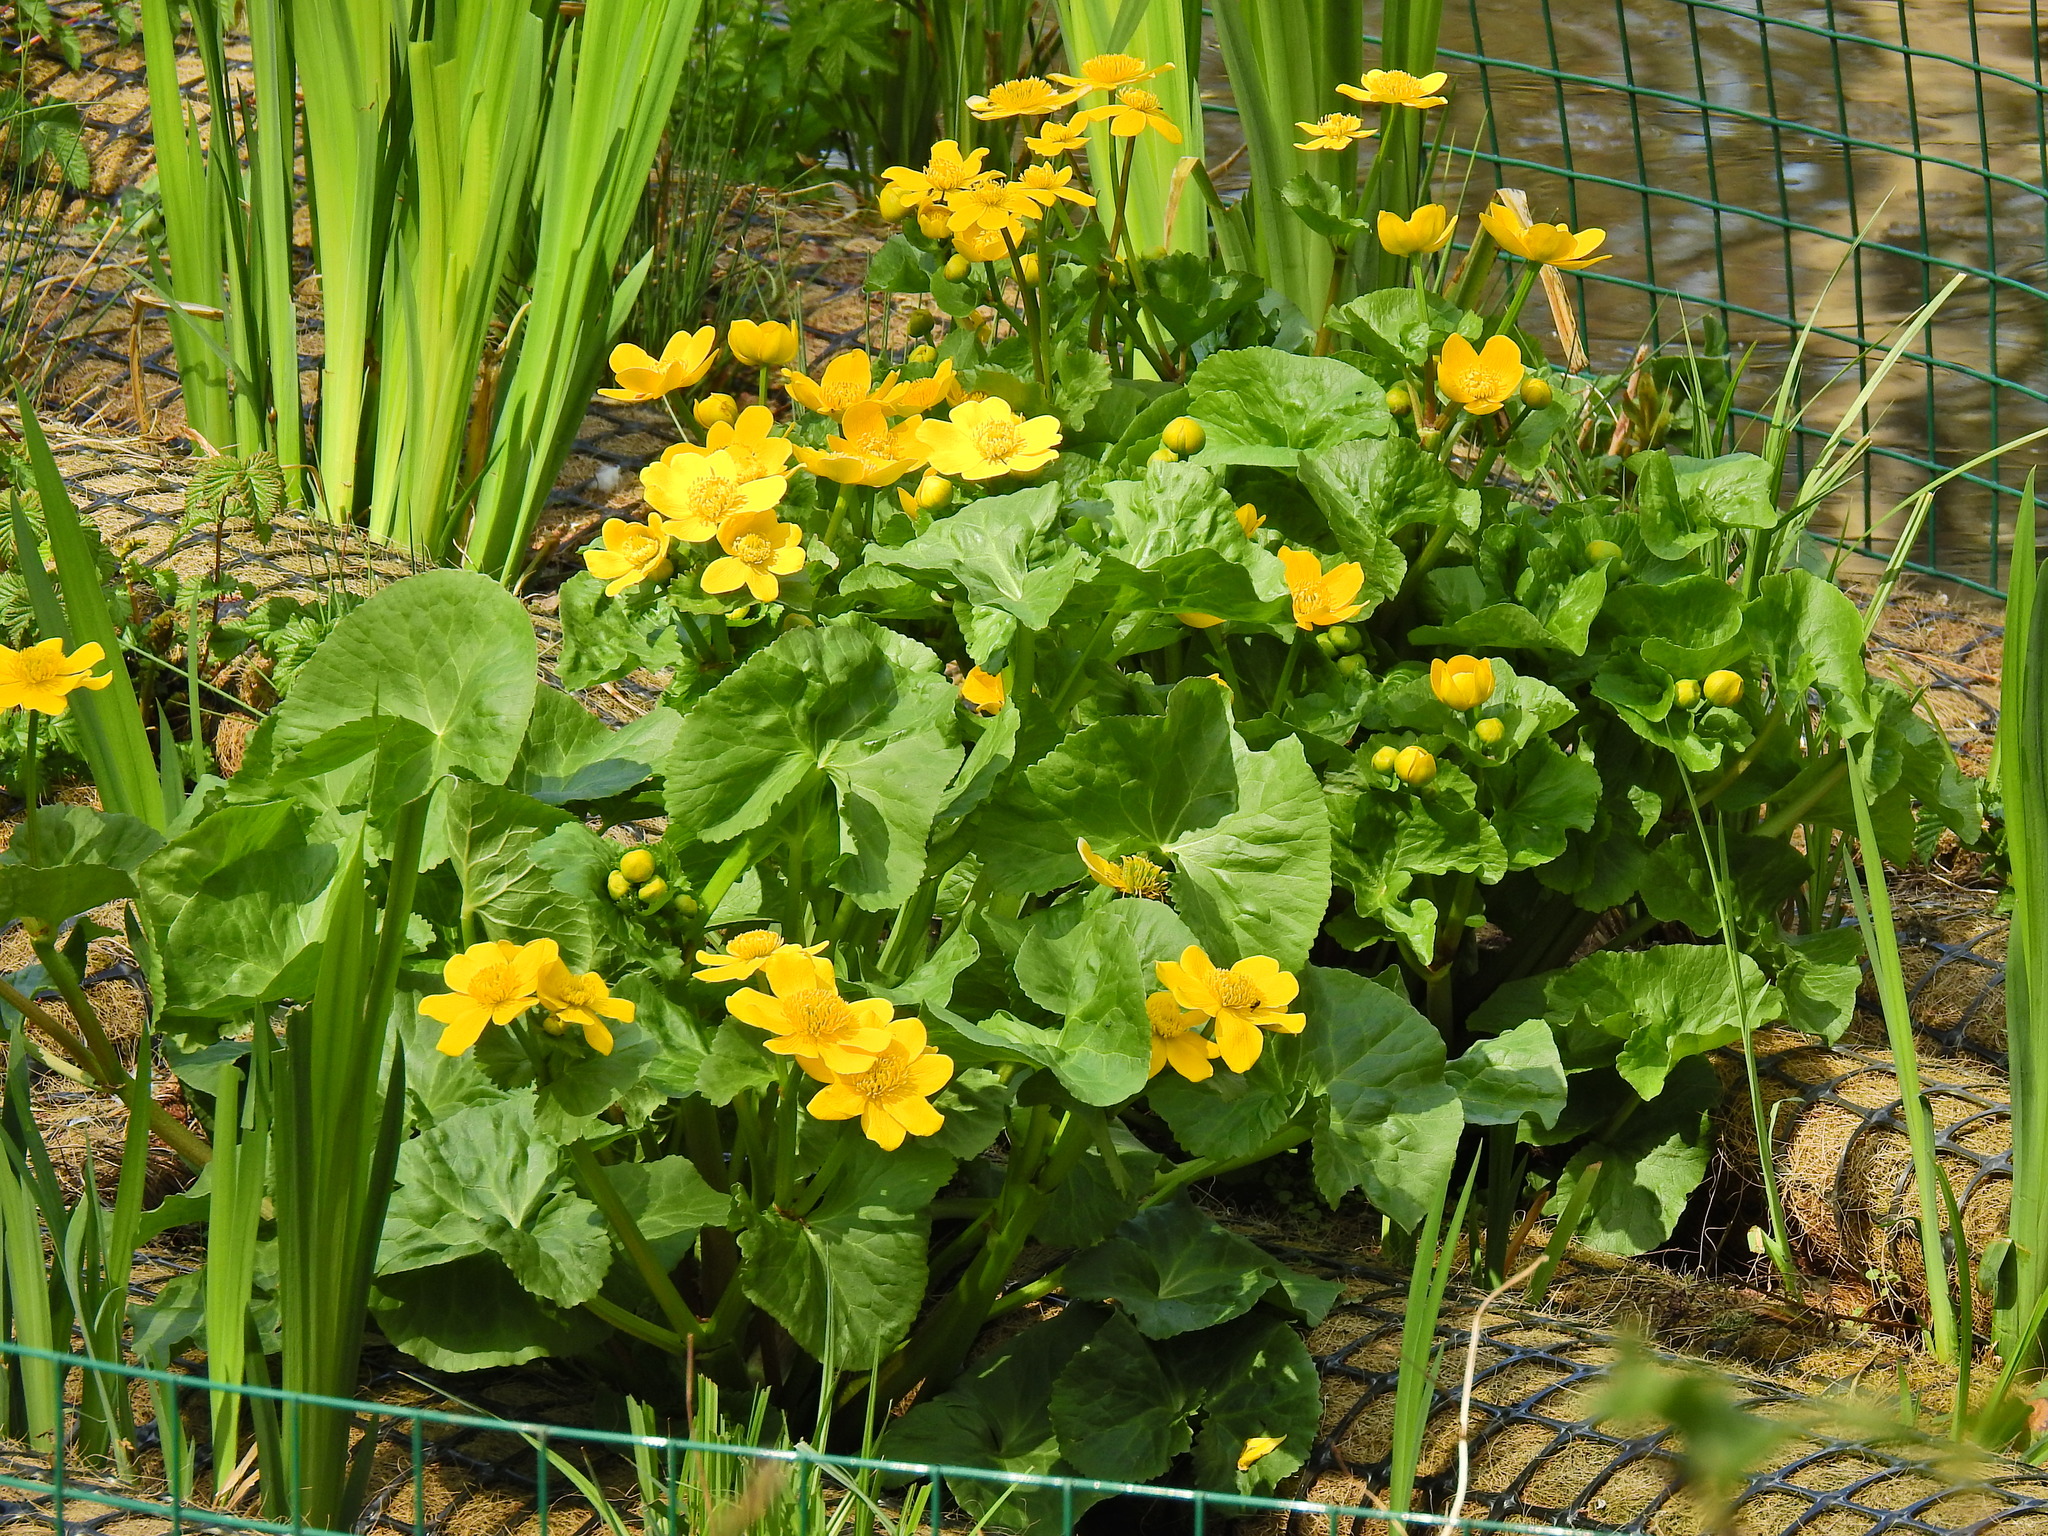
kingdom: Plantae
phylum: Tracheophyta
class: Magnoliopsida
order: Ranunculales
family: Ranunculaceae
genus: Caltha
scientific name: Caltha palustris
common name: Marsh marigold
